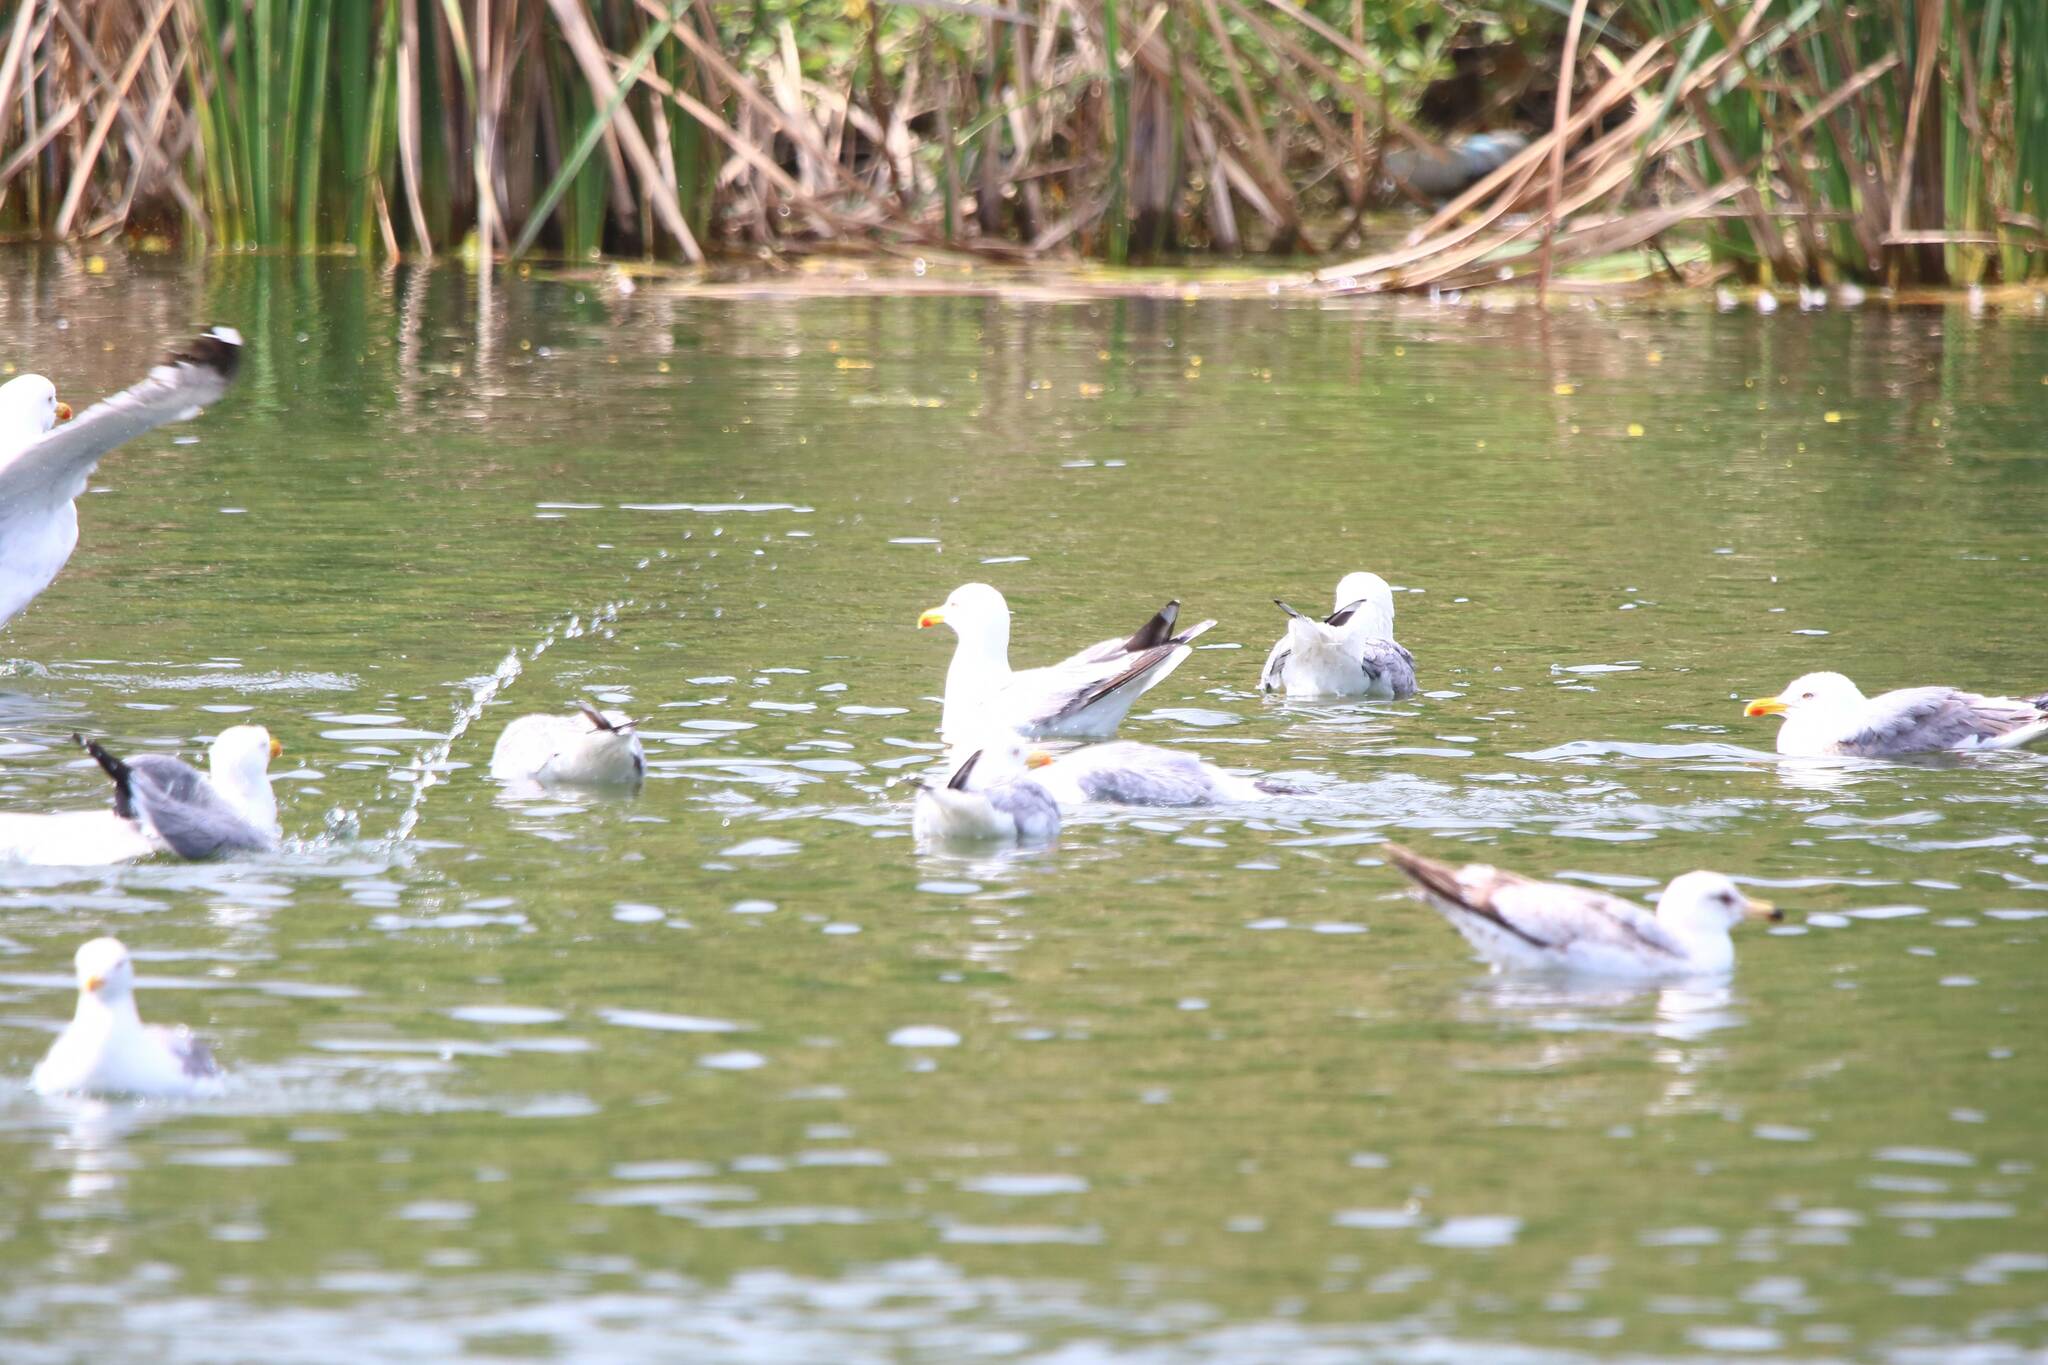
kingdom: Animalia
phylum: Chordata
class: Aves
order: Charadriiformes
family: Laridae
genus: Larus
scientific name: Larus michahellis
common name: Yellow-legged gull
